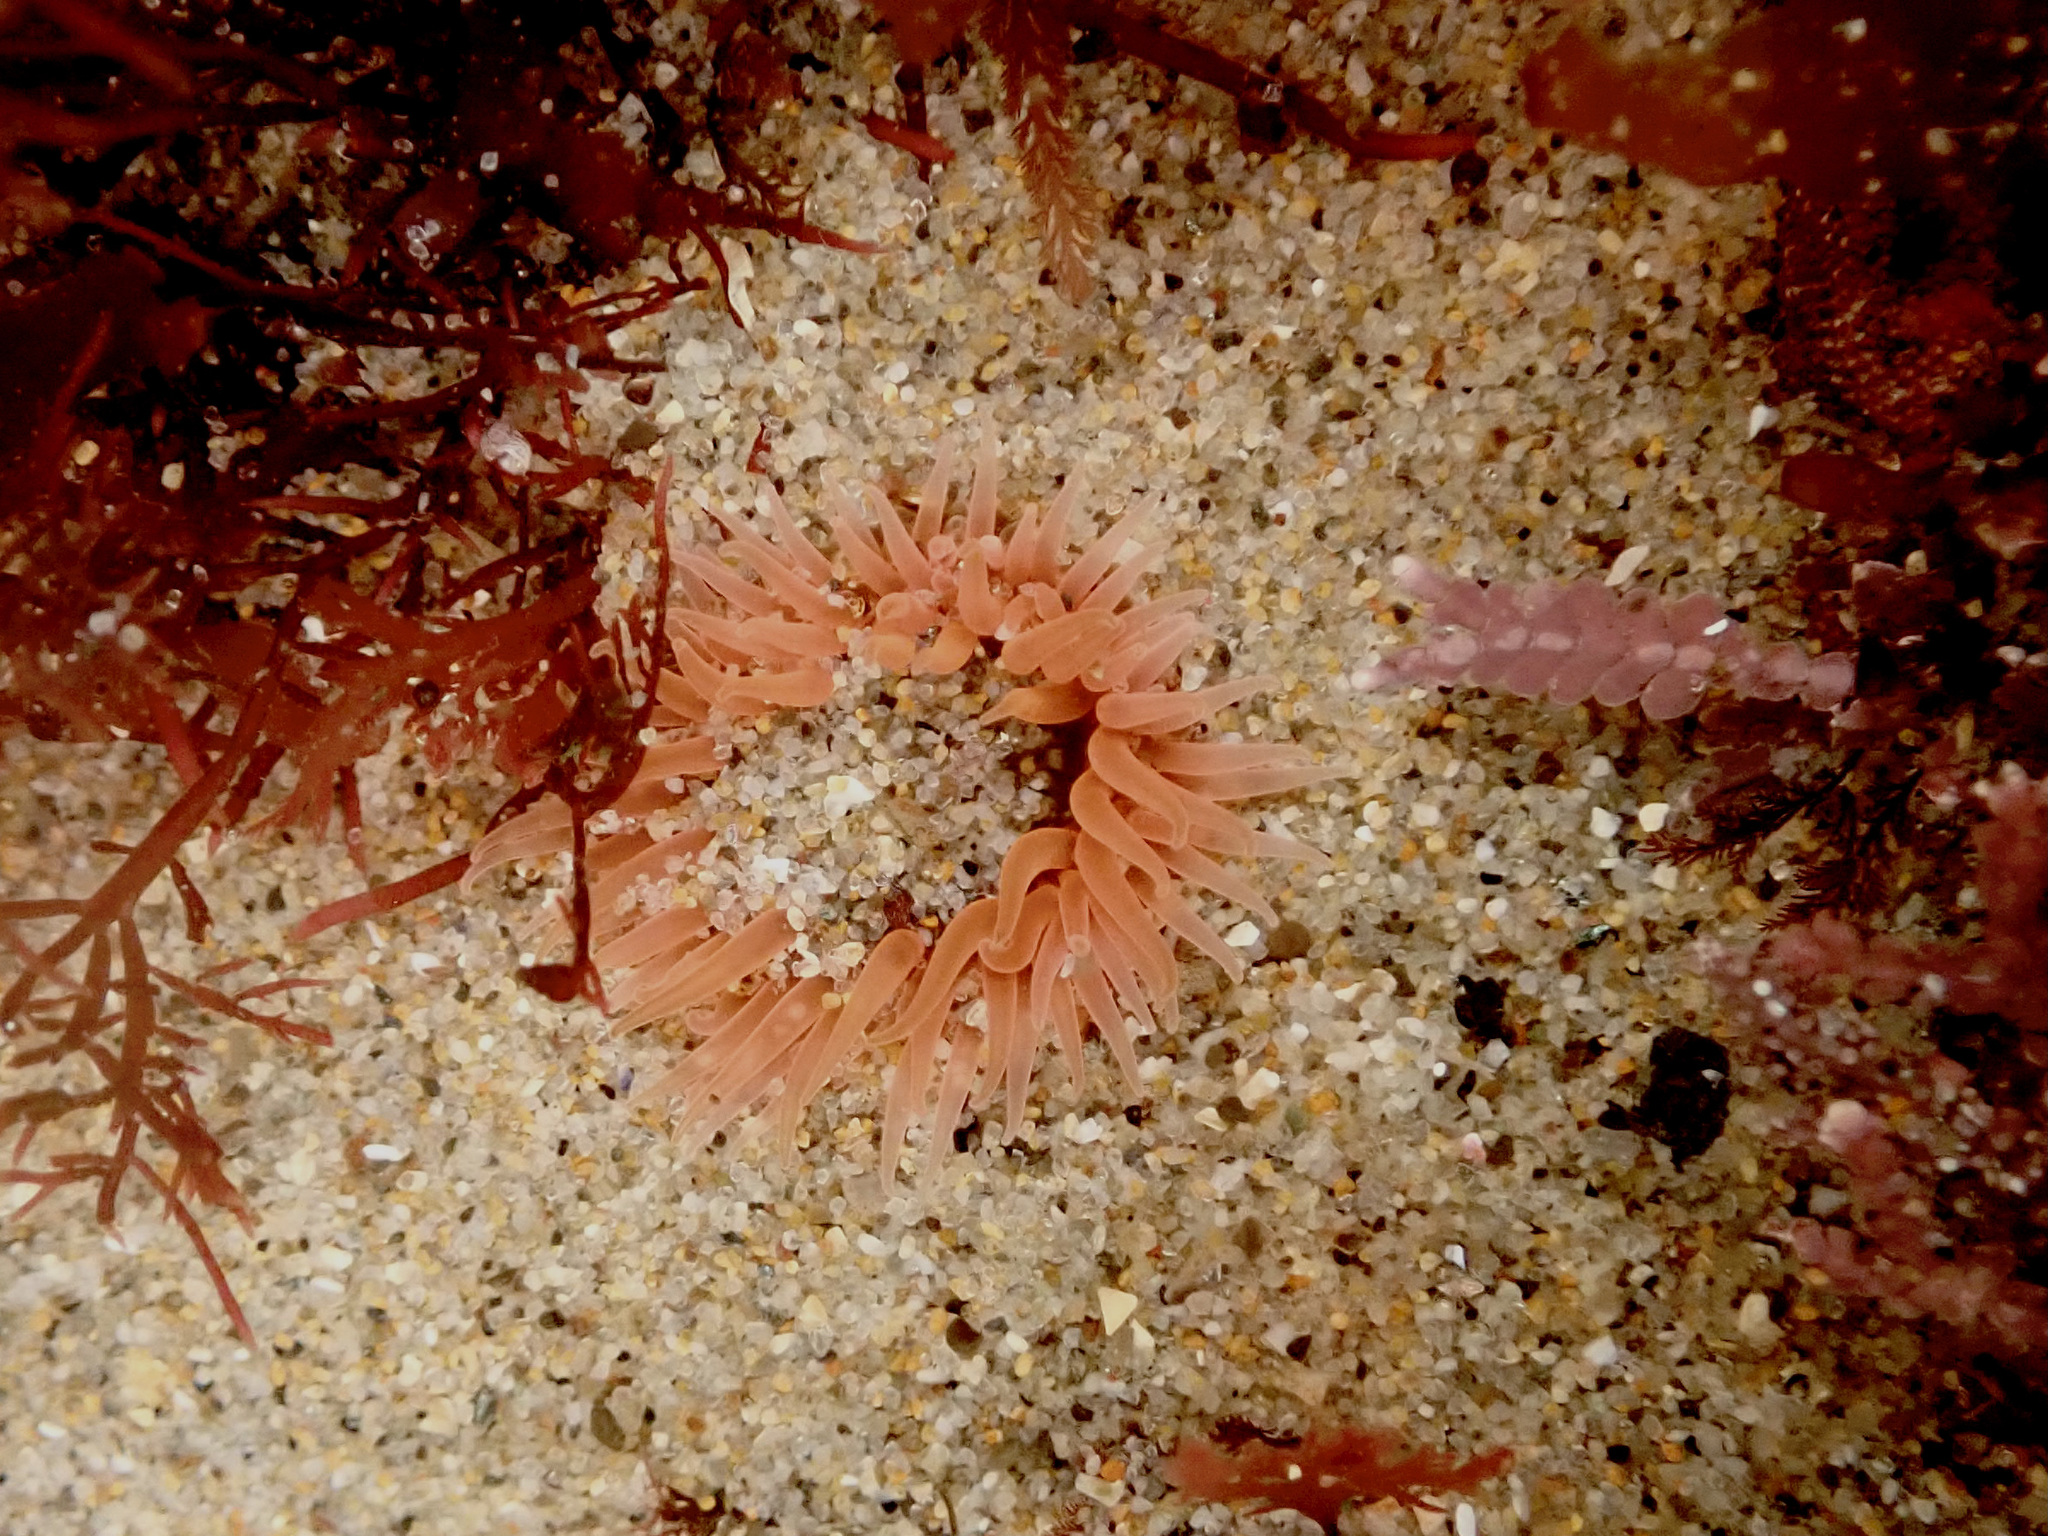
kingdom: Animalia
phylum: Cnidaria
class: Anthozoa
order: Actiniaria
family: Actiniidae
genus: Anthopleura
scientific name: Anthopleura artemisia
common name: Buried sea anemone
